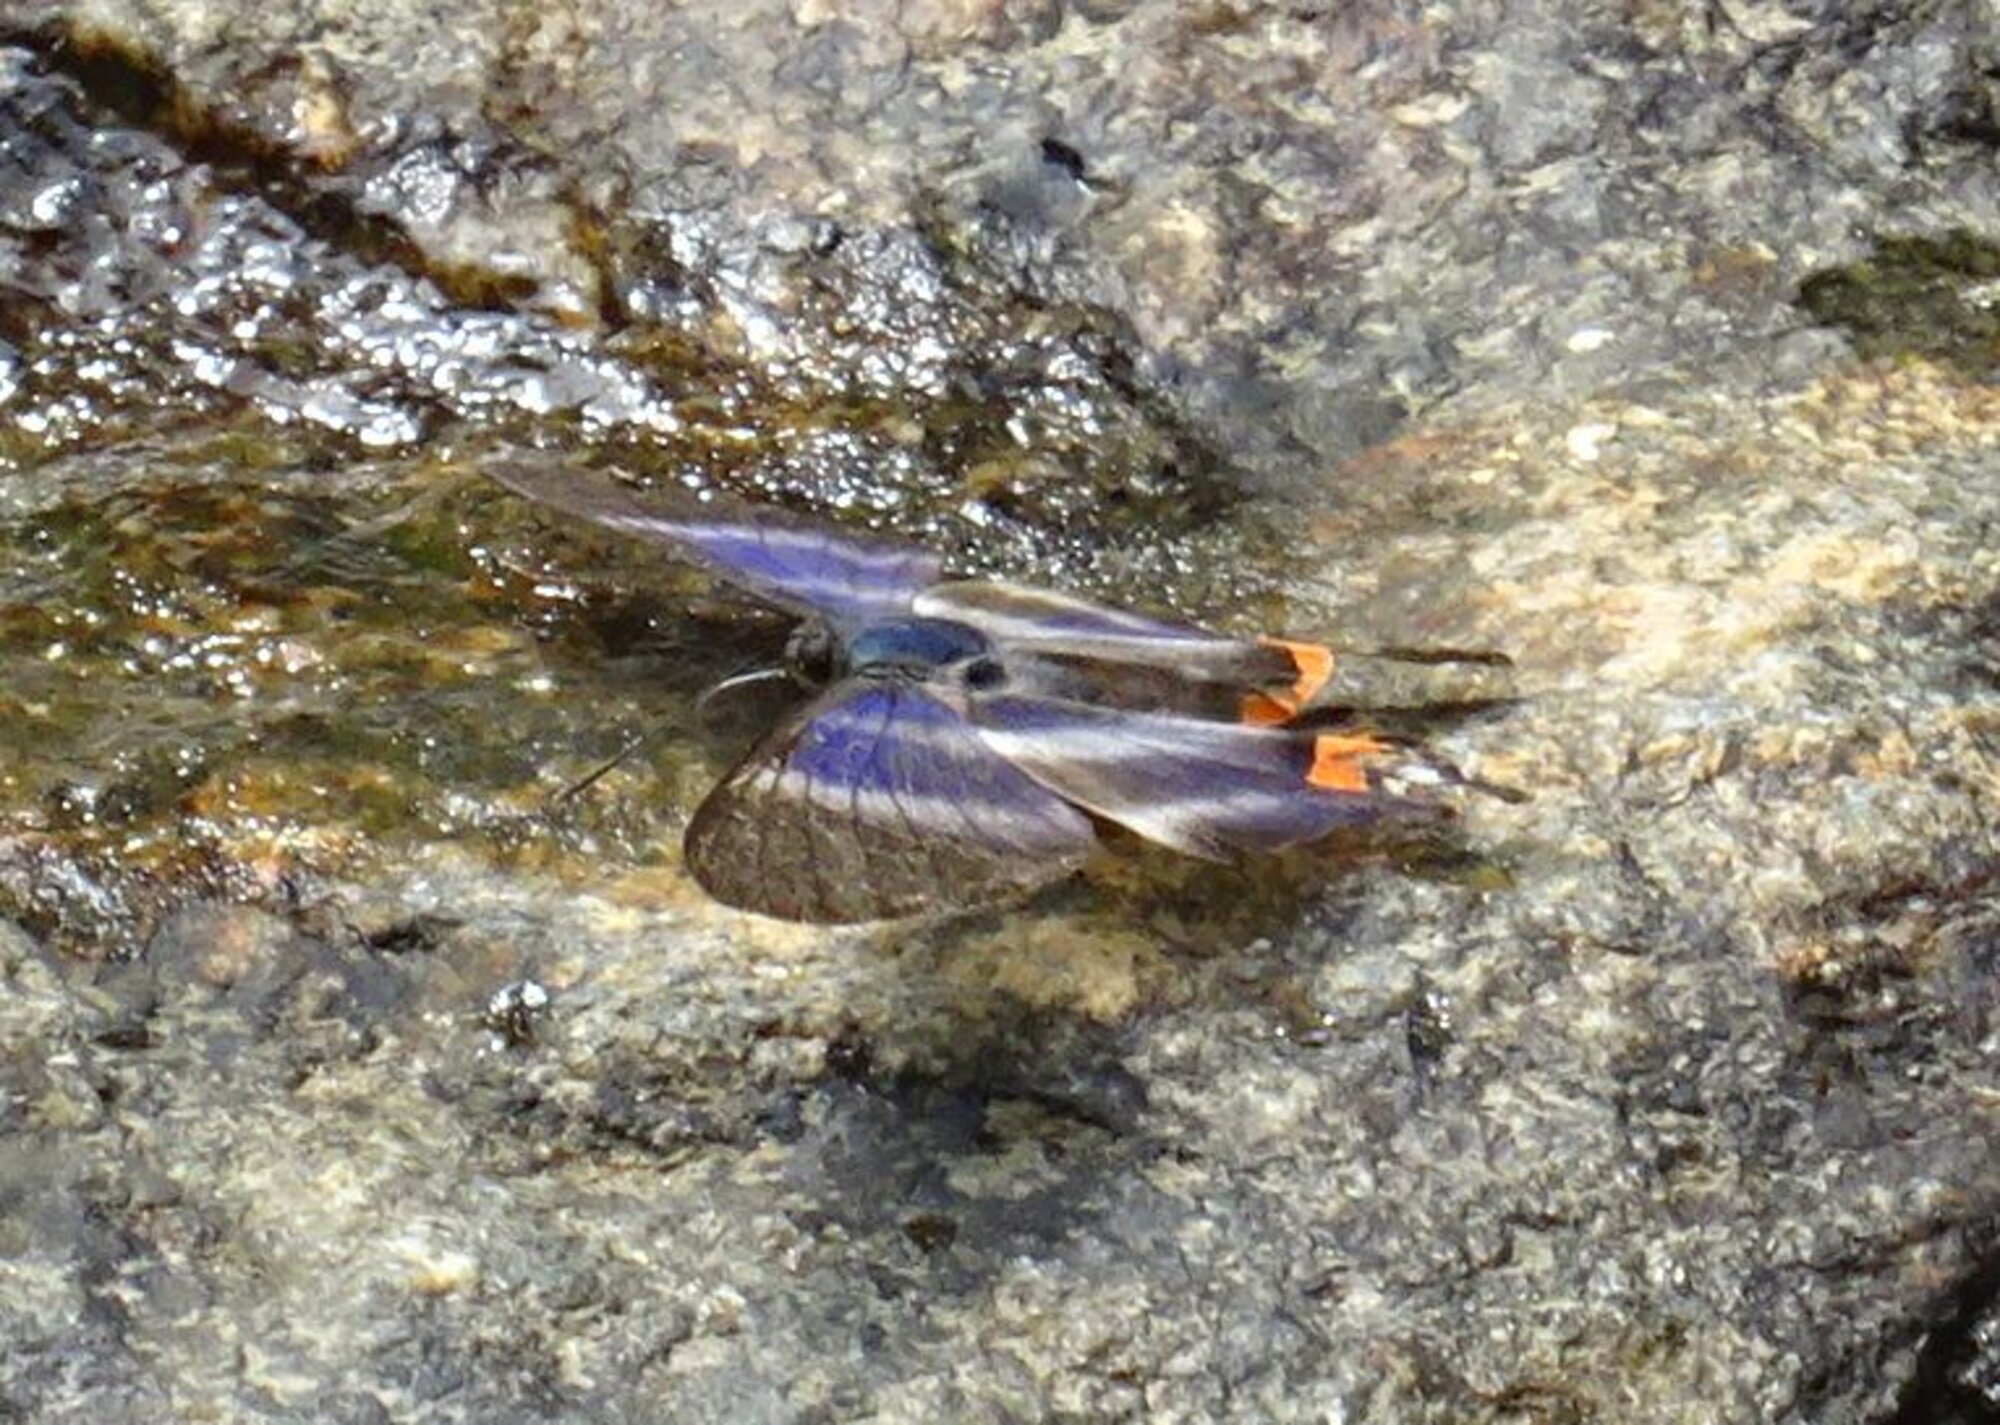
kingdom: Animalia
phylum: Arthropoda
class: Insecta
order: Lepidoptera
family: Riodinidae
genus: Rhetus
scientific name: Rhetus dysonii
